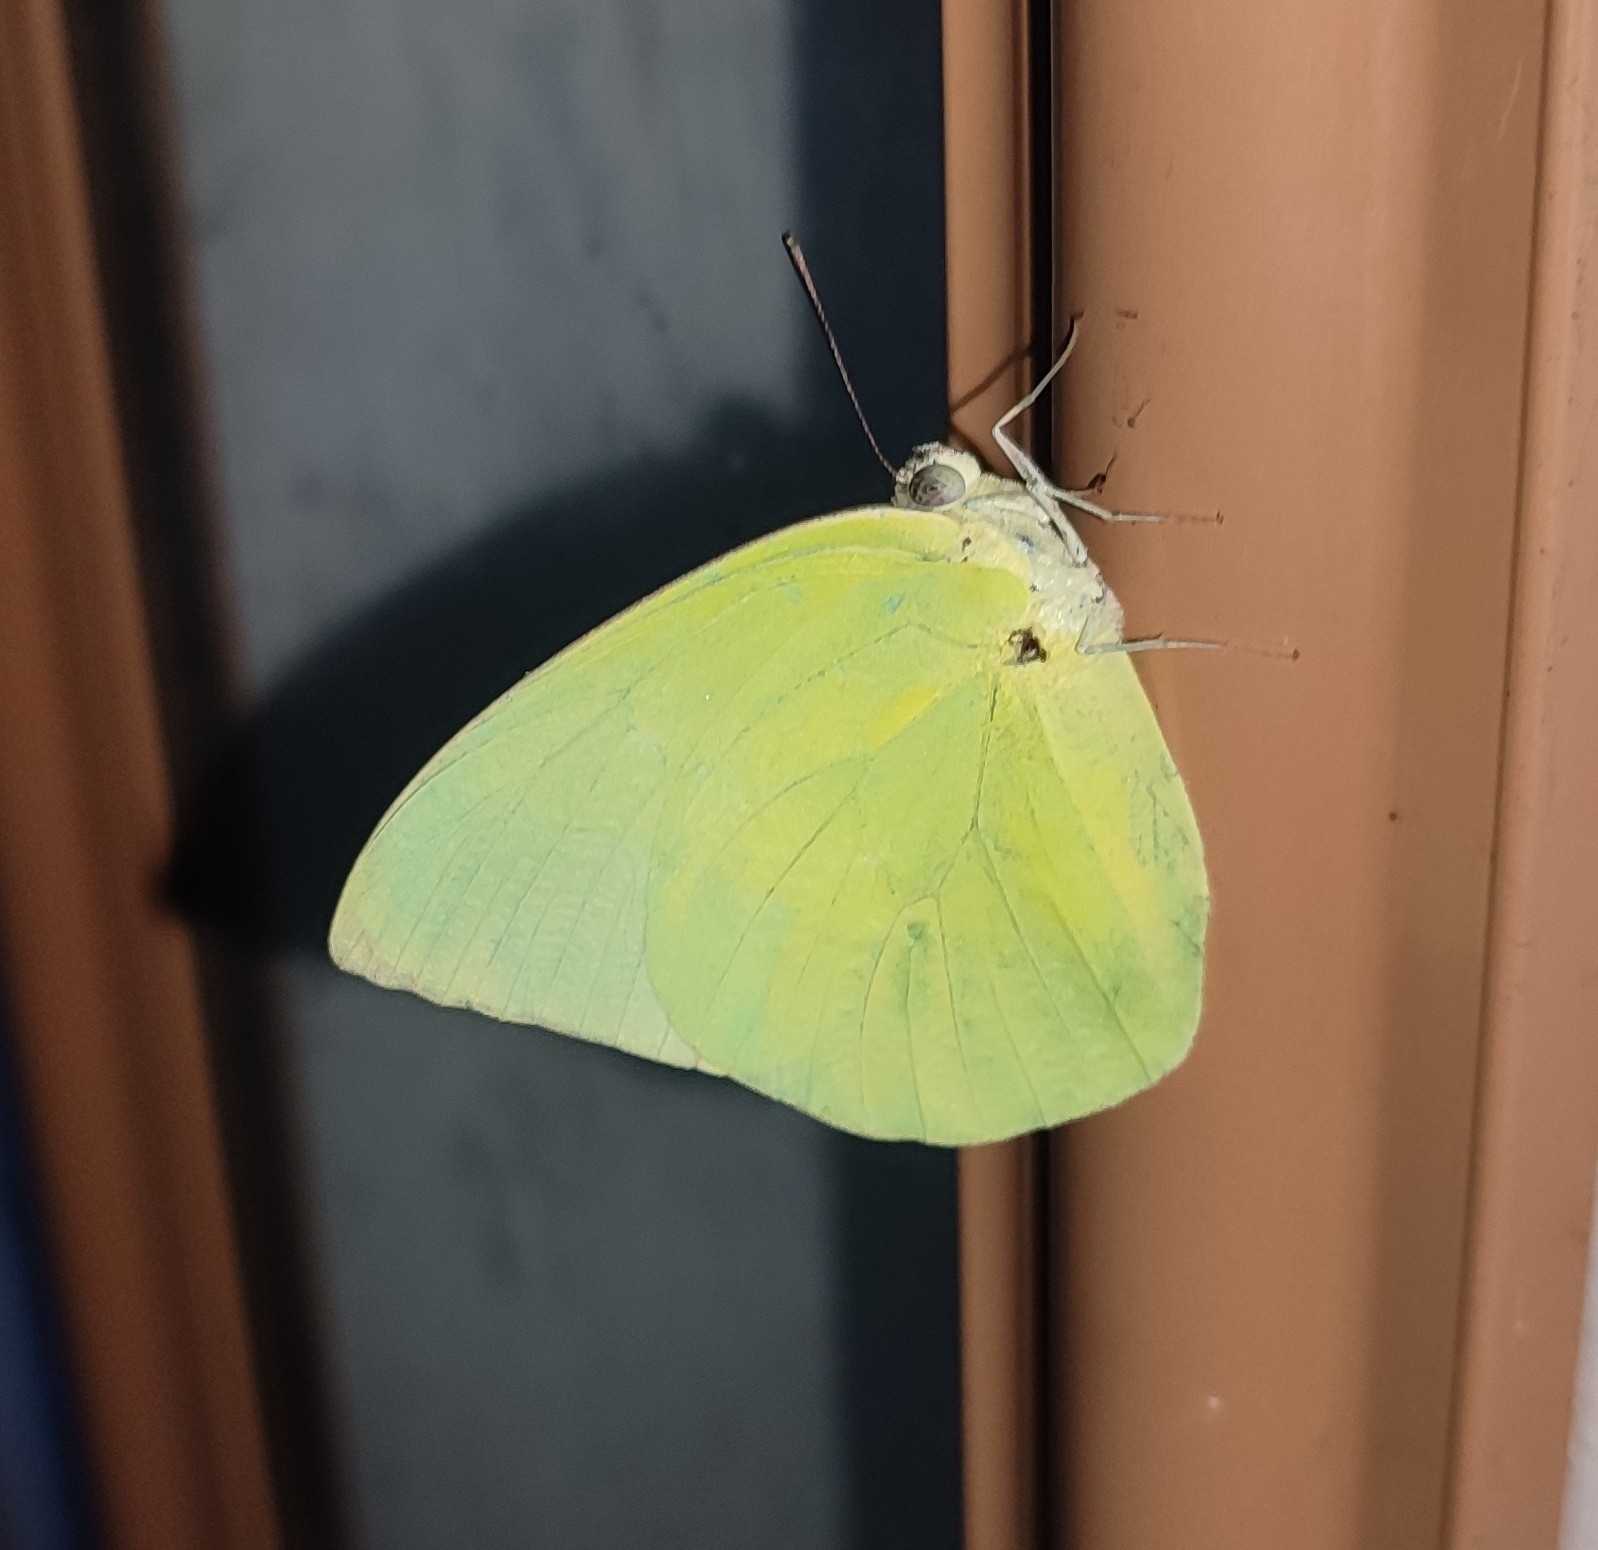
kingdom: Animalia
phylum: Arthropoda
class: Insecta
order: Lepidoptera
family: Pieridae
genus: Catopsilia
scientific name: Catopsilia pomona
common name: Common emigrant
